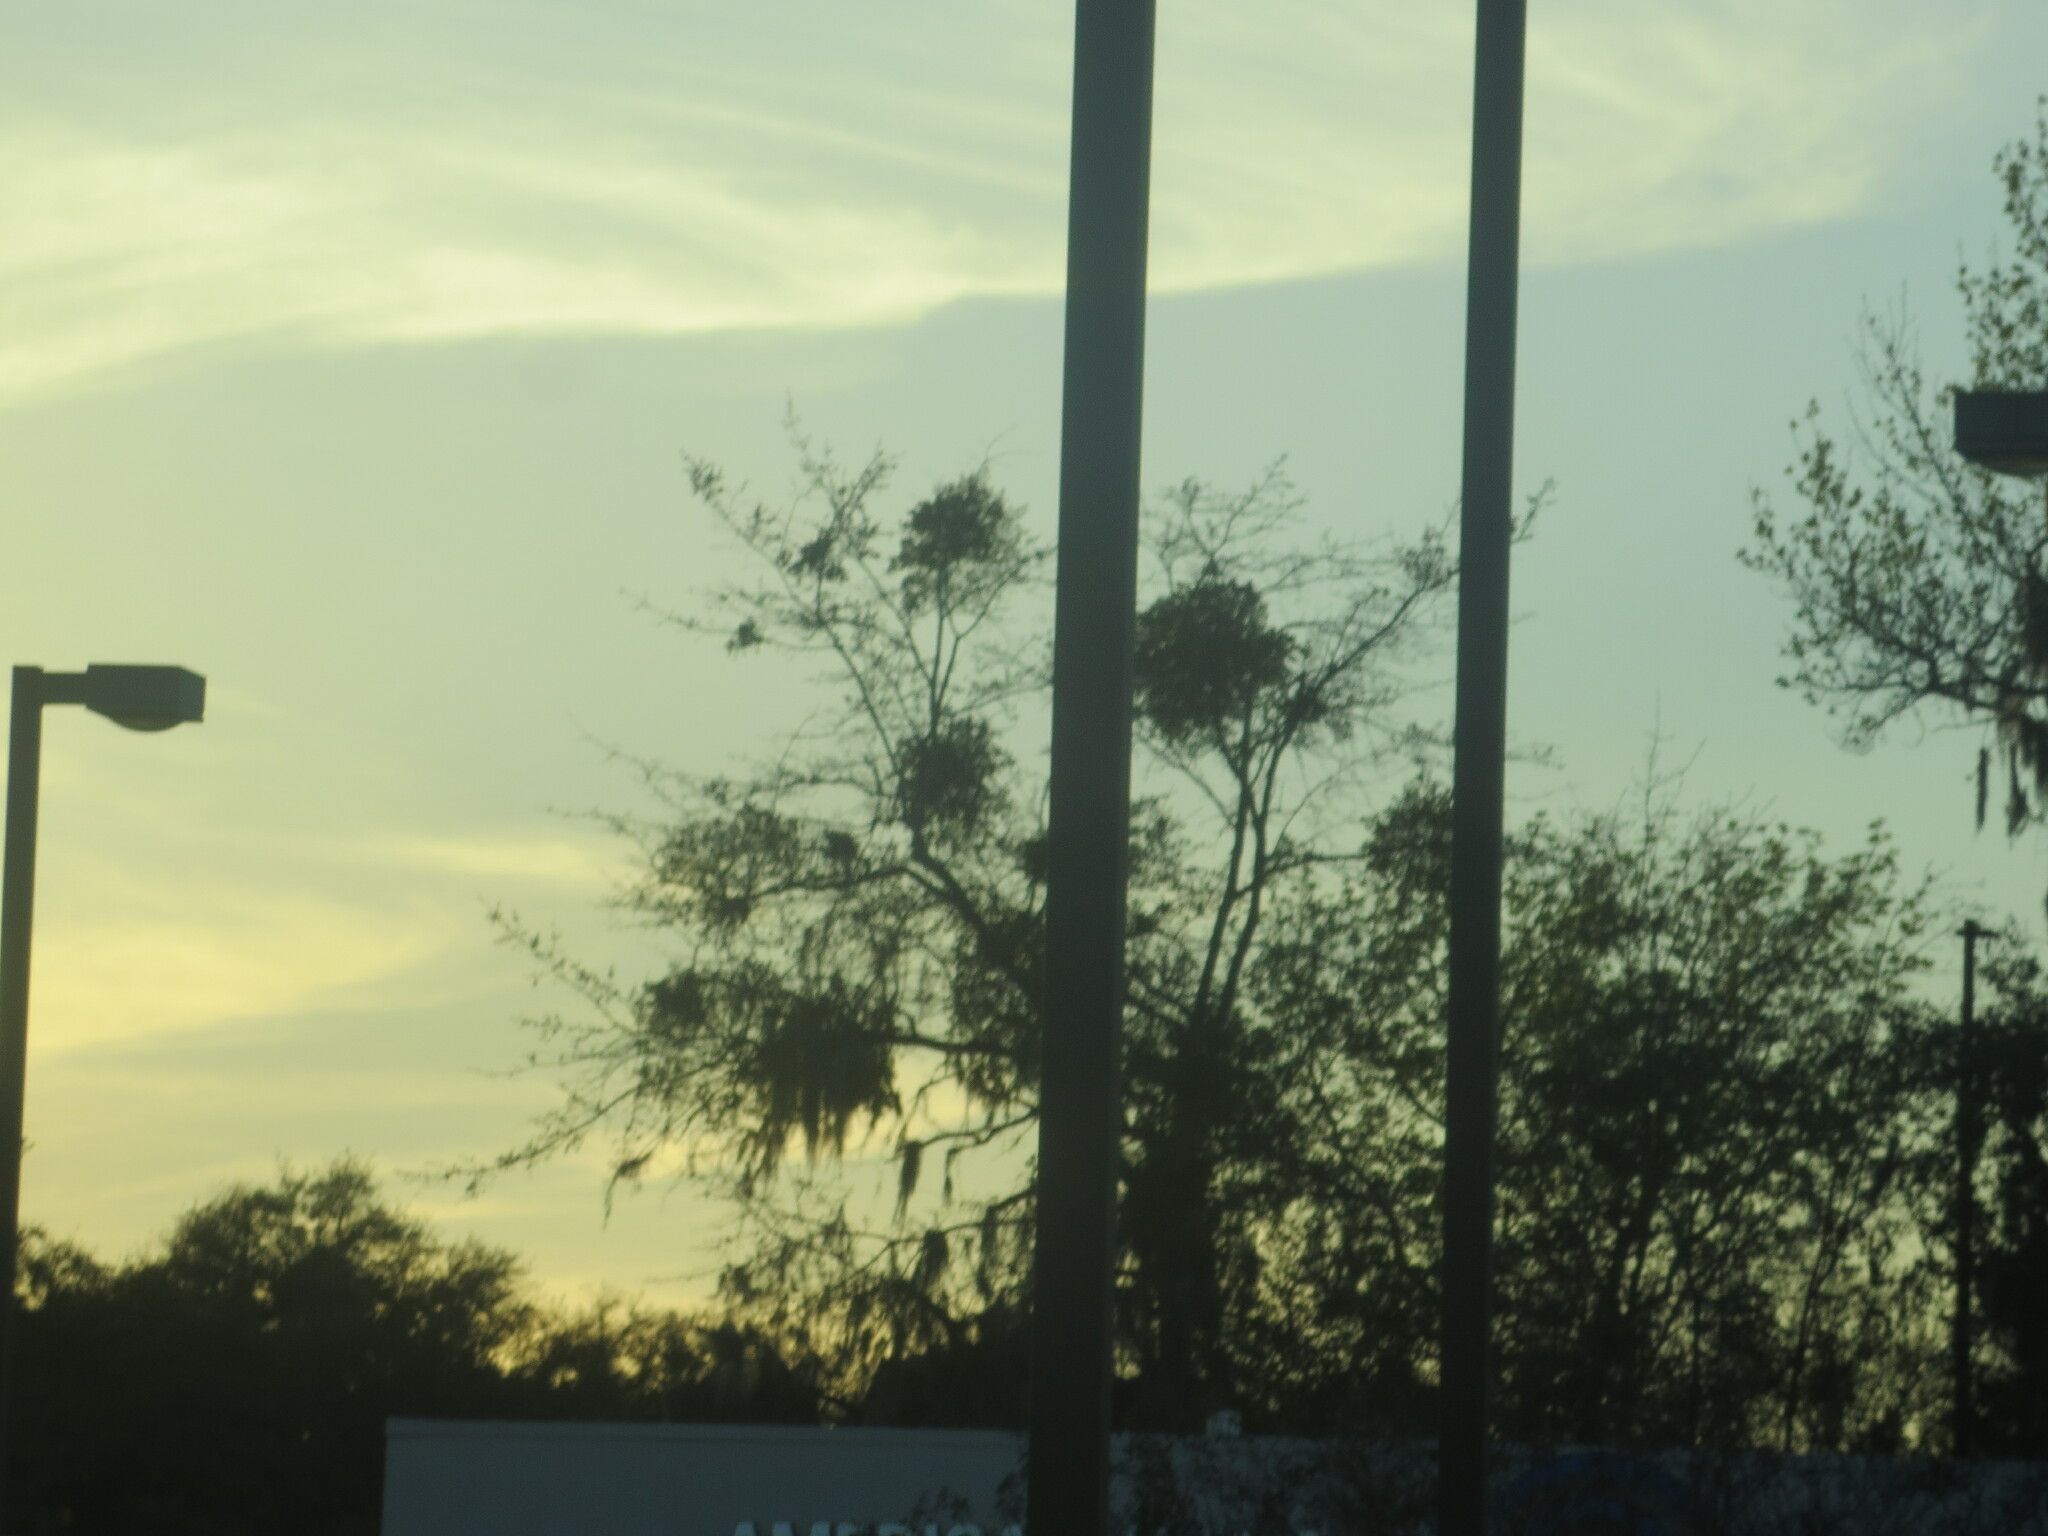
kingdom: Plantae
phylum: Tracheophyta
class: Magnoliopsida
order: Santalales
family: Viscaceae
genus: Phoradendron
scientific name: Phoradendron leucarpum
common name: Pacific mistletoe
